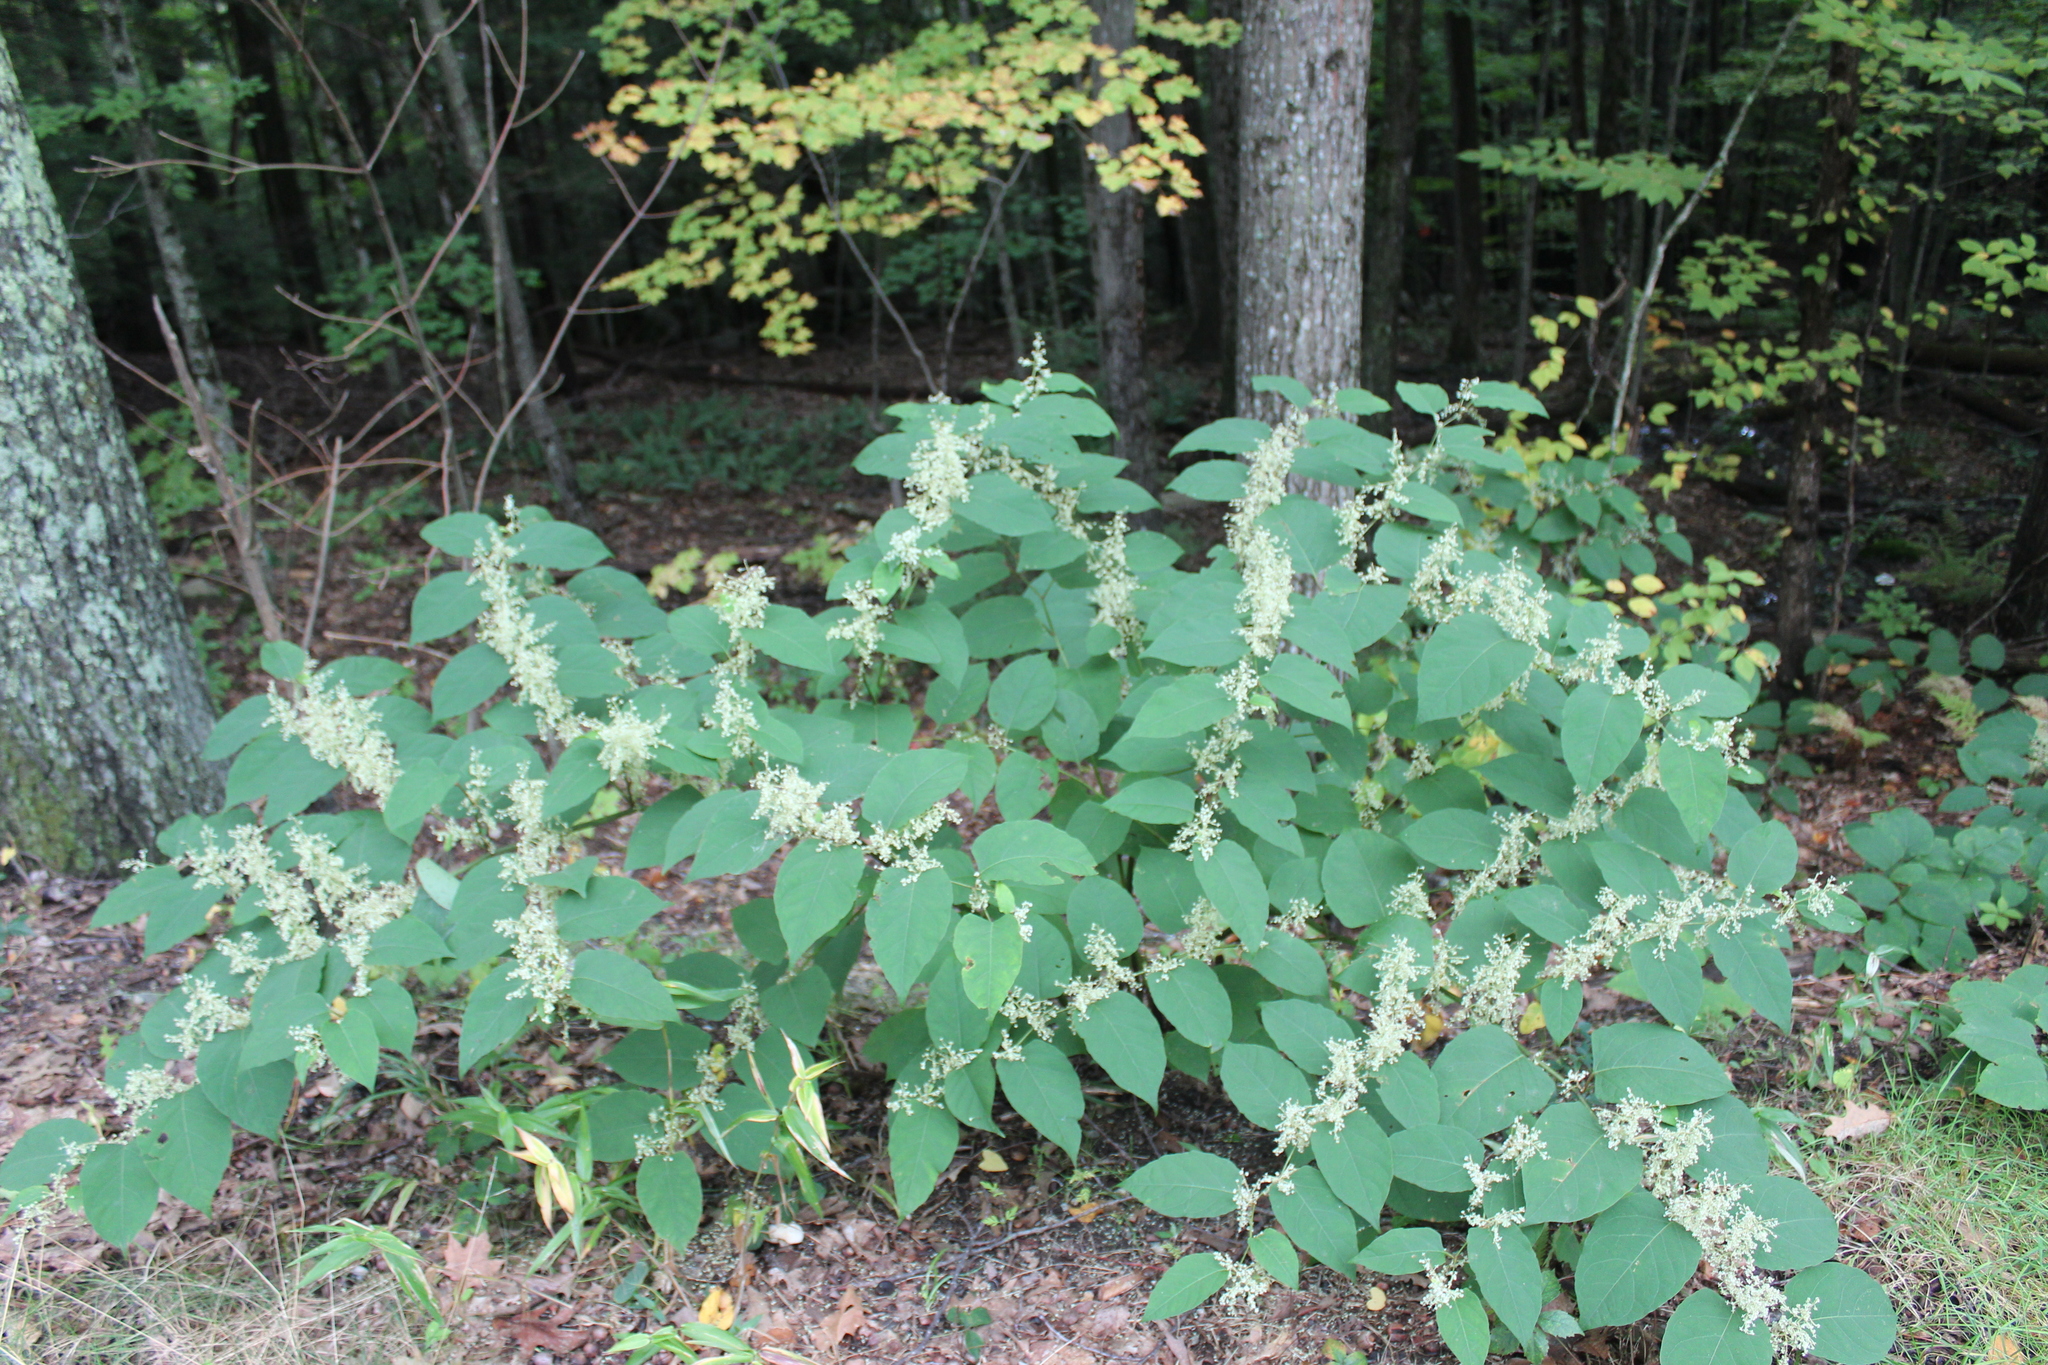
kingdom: Plantae
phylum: Tracheophyta
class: Magnoliopsida
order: Caryophyllales
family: Polygonaceae
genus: Reynoutria
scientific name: Reynoutria japonica
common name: Japanese knotweed
